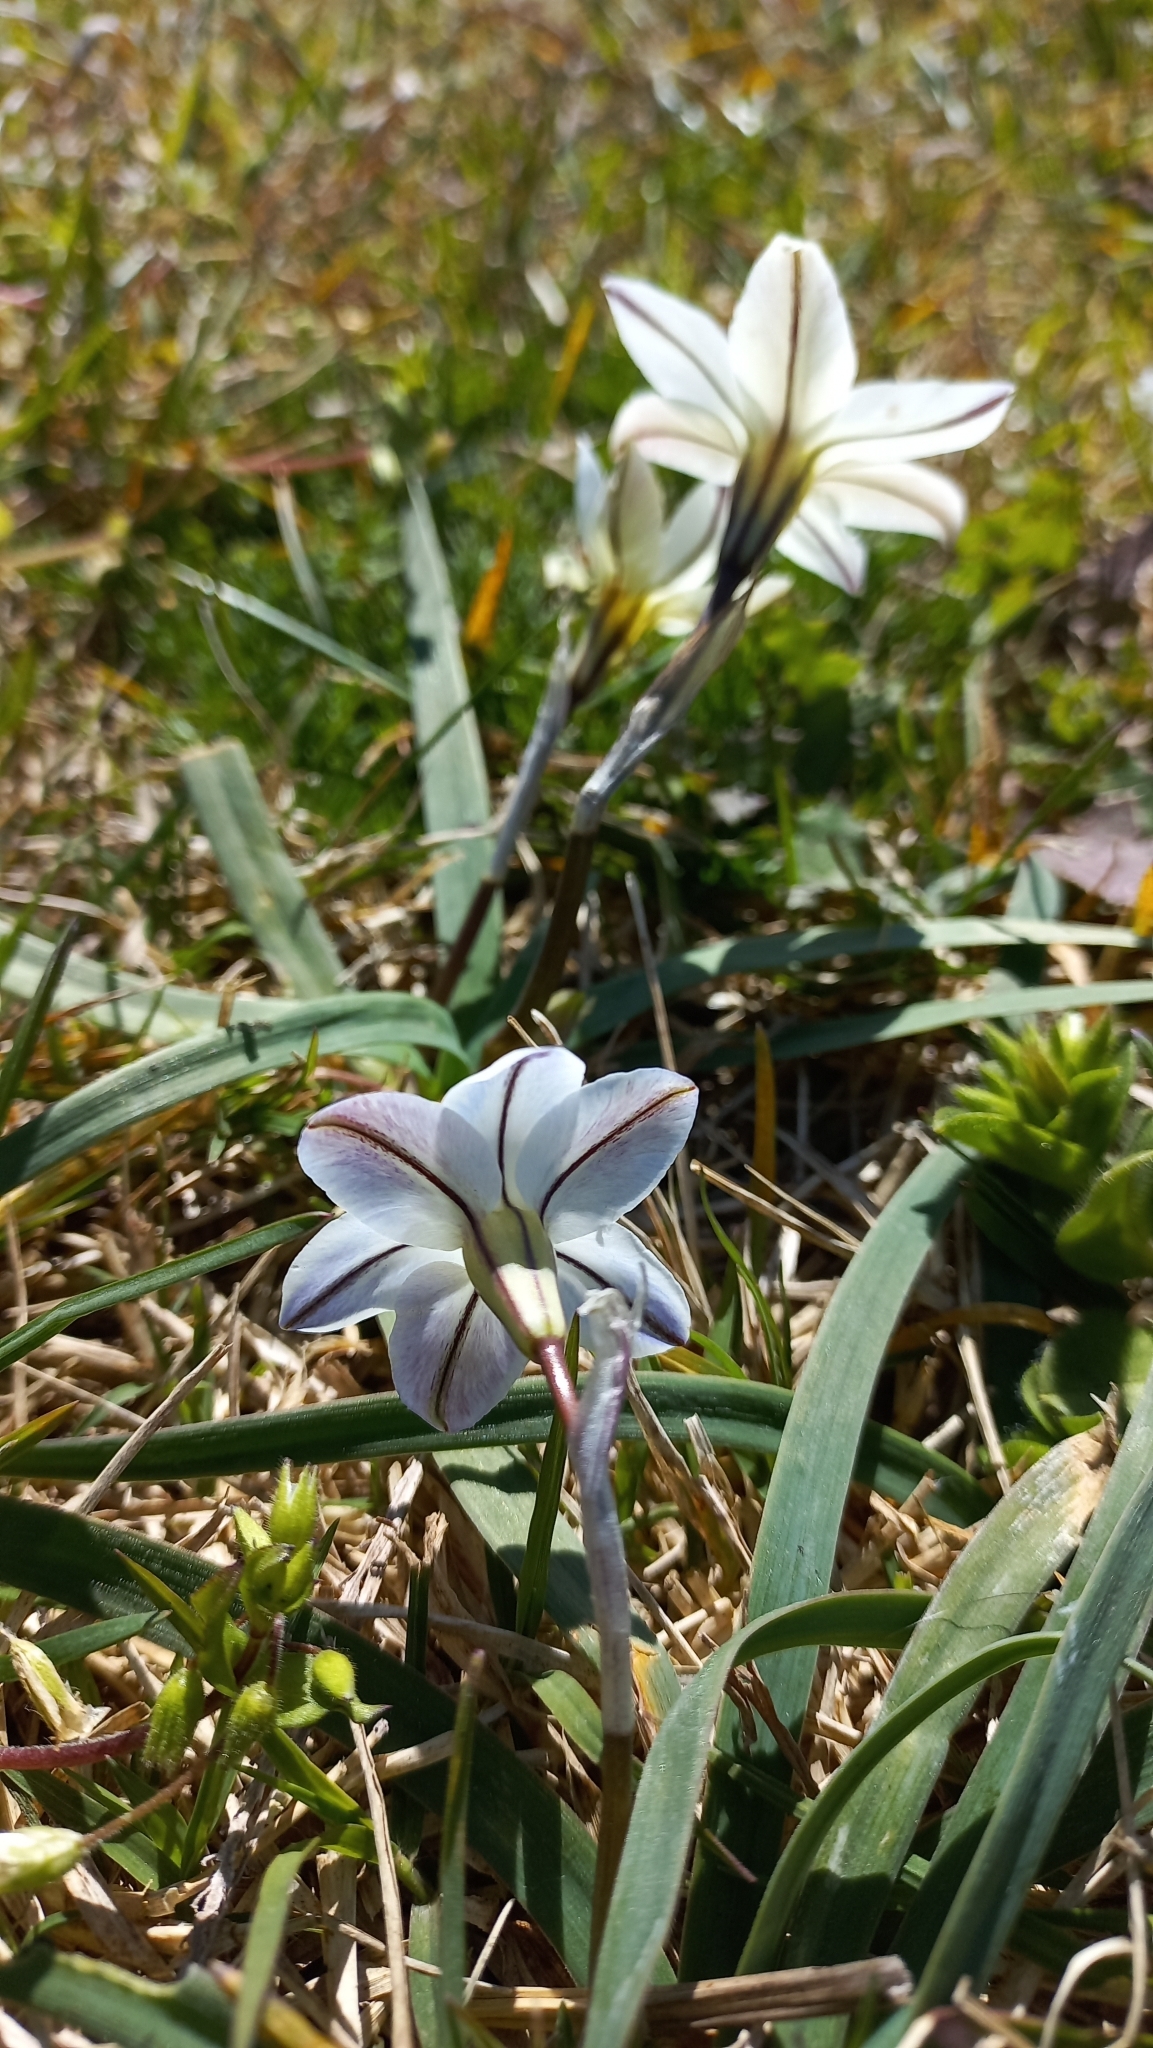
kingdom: Plantae
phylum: Tracheophyta
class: Liliopsida
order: Asparagales
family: Amaryllidaceae
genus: Ipheion
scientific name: Ipheion uniflorum
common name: Spring starflower
